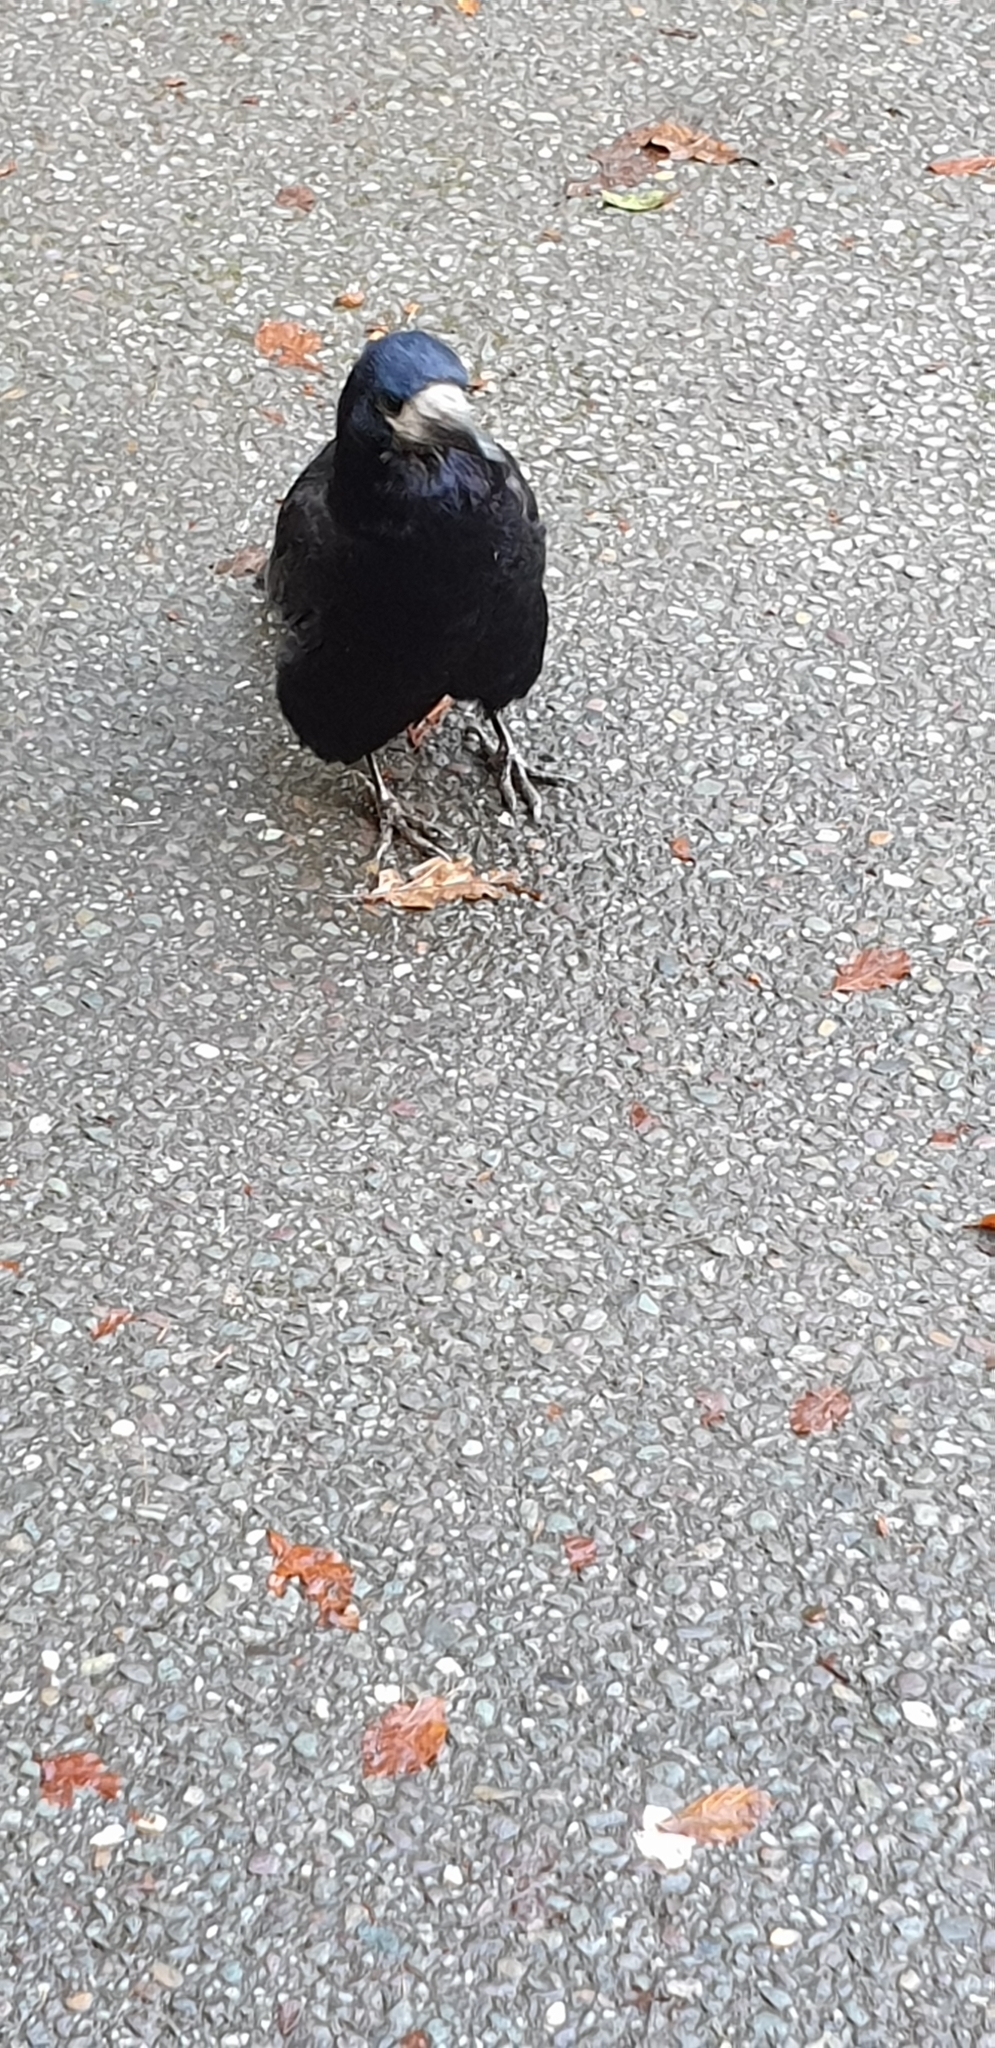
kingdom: Animalia
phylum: Chordata
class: Aves
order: Passeriformes
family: Corvidae
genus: Corvus
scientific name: Corvus frugilegus
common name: Rook
